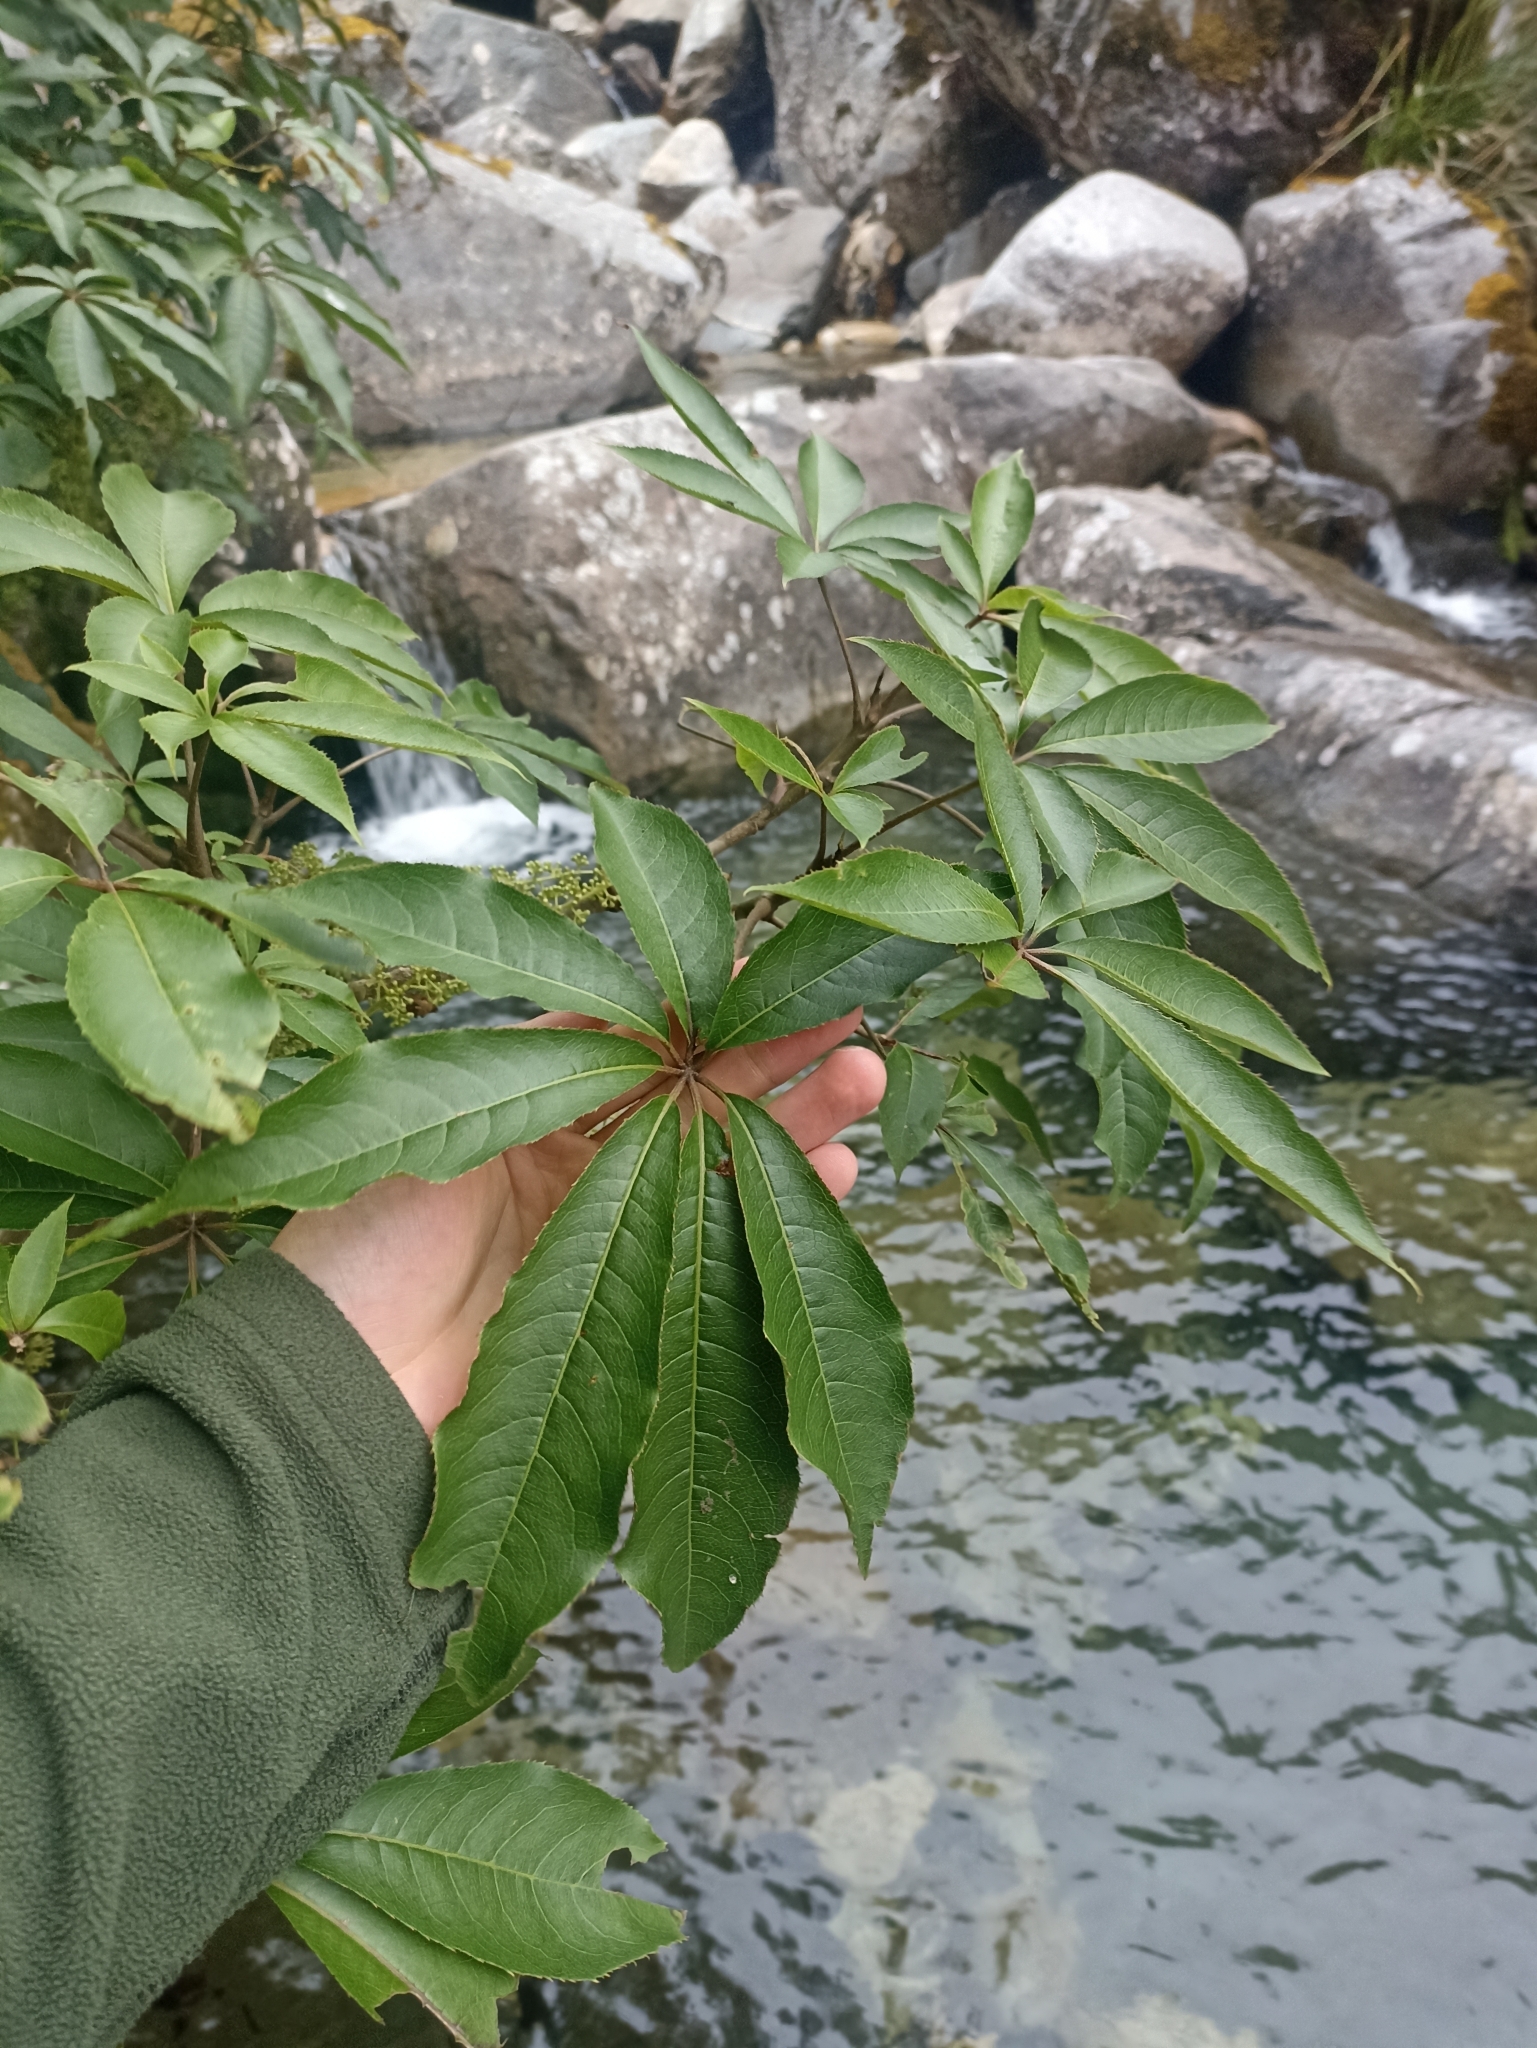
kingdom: Plantae
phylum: Tracheophyta
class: Magnoliopsida
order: Apiales
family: Araliaceae
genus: Schefflera
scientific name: Schefflera digitata
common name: Pate
